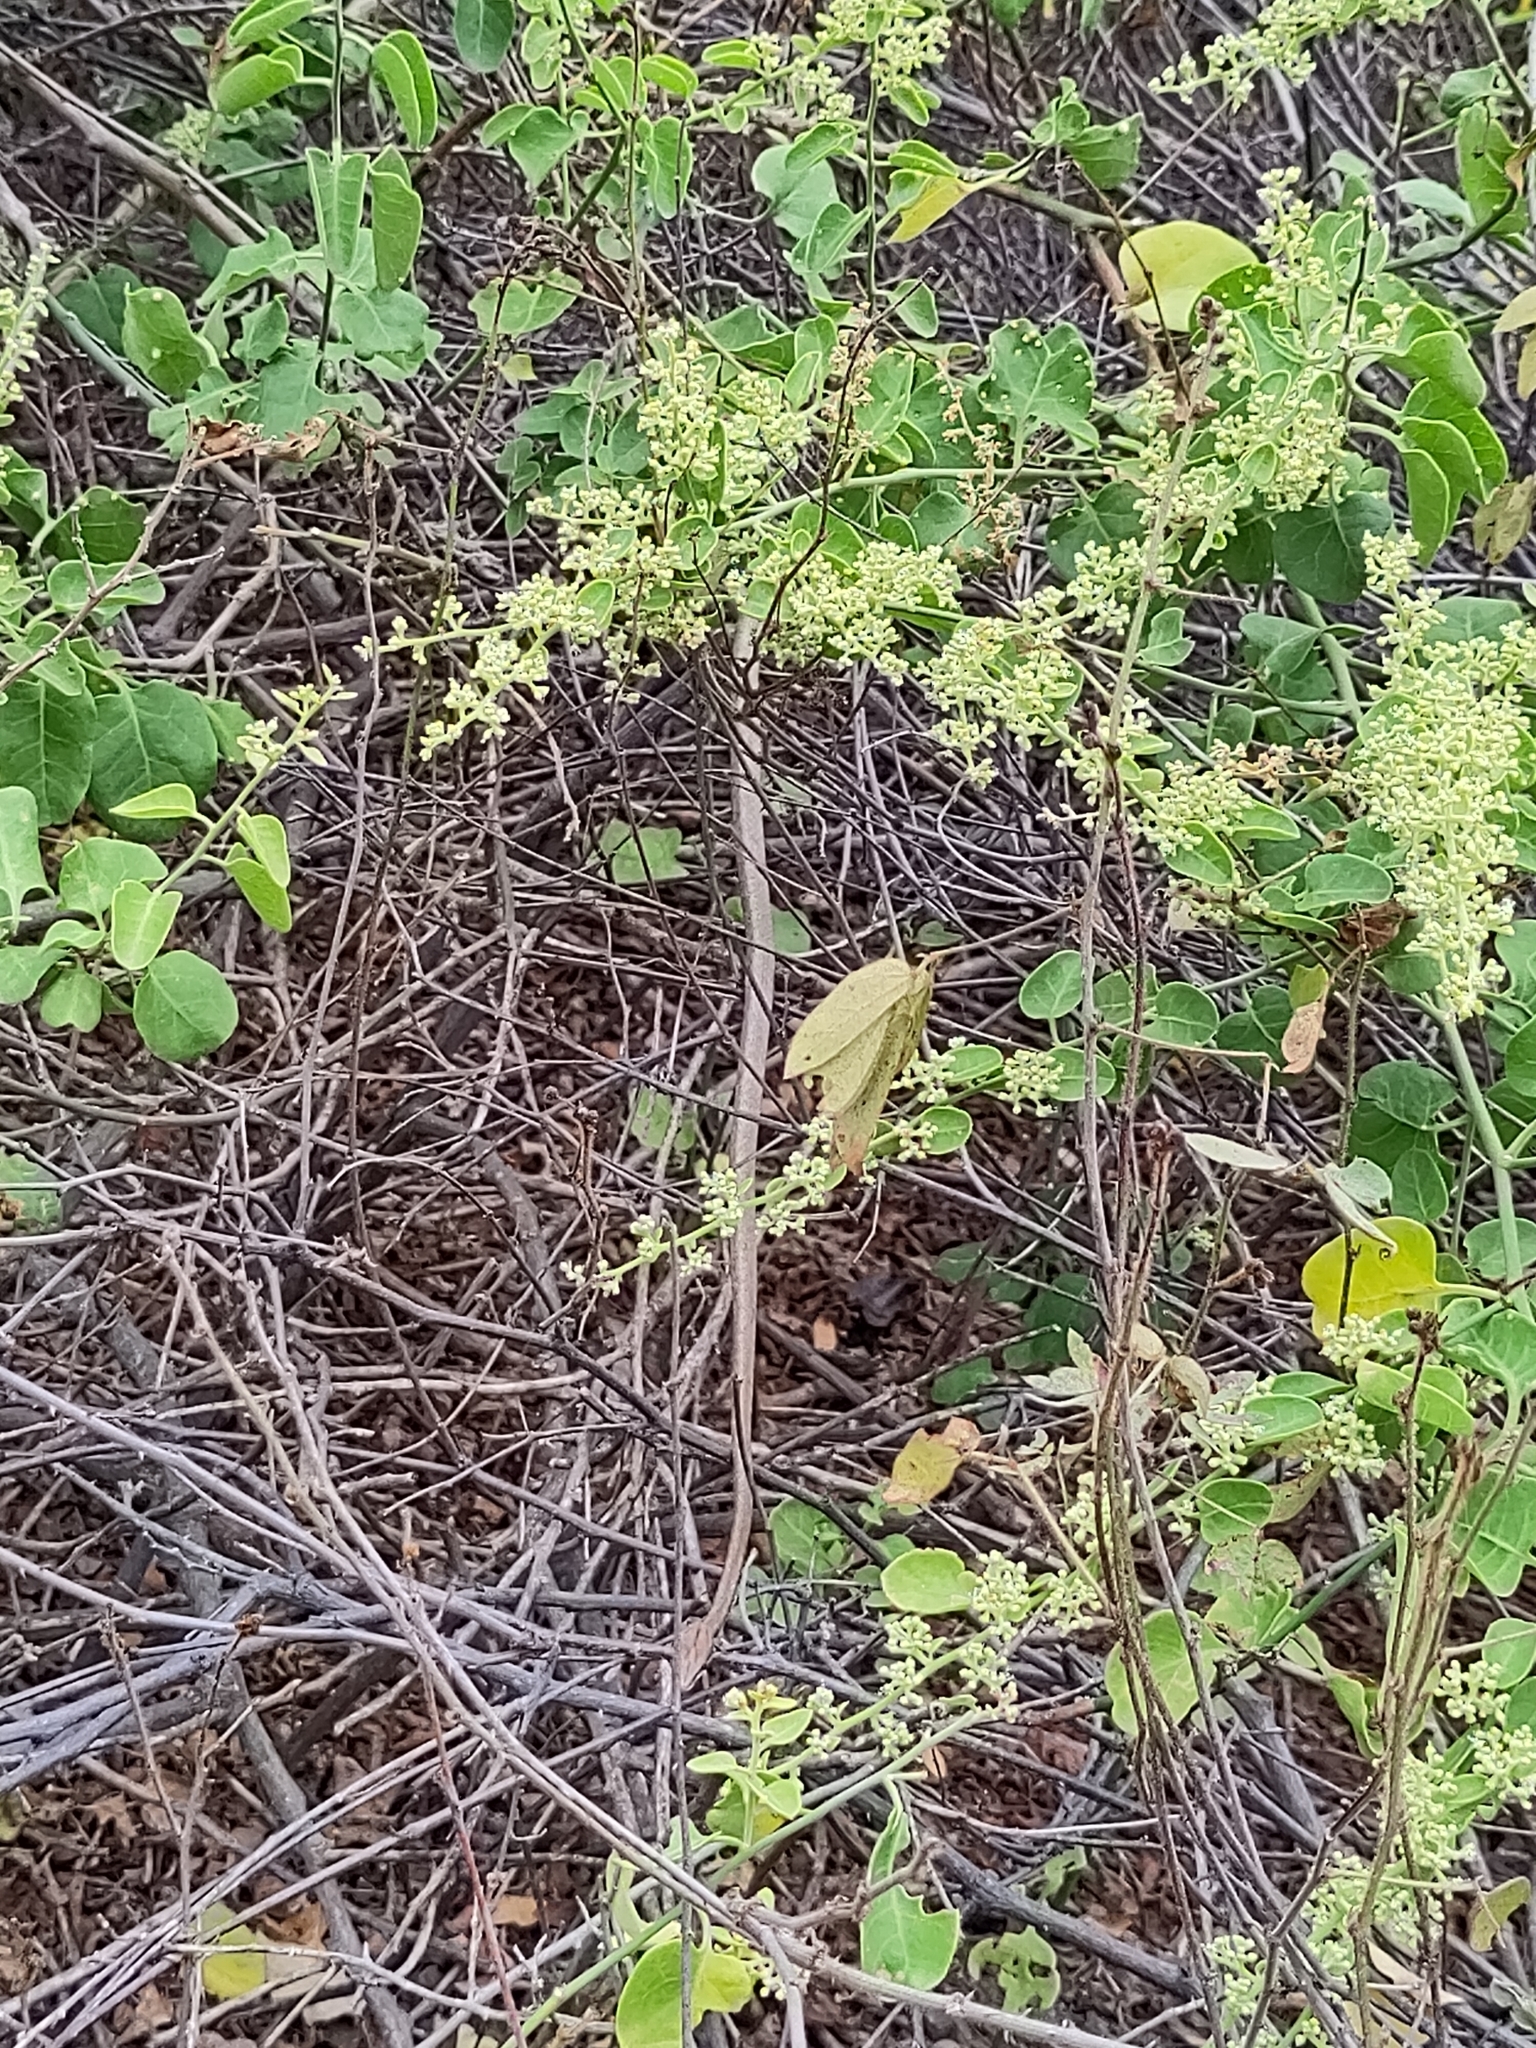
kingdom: Plantae
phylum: Tracheophyta
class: Magnoliopsida
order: Caryophyllales
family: Nyctaginaceae
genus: Cryptocarpus
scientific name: Cryptocarpus pyriformis
